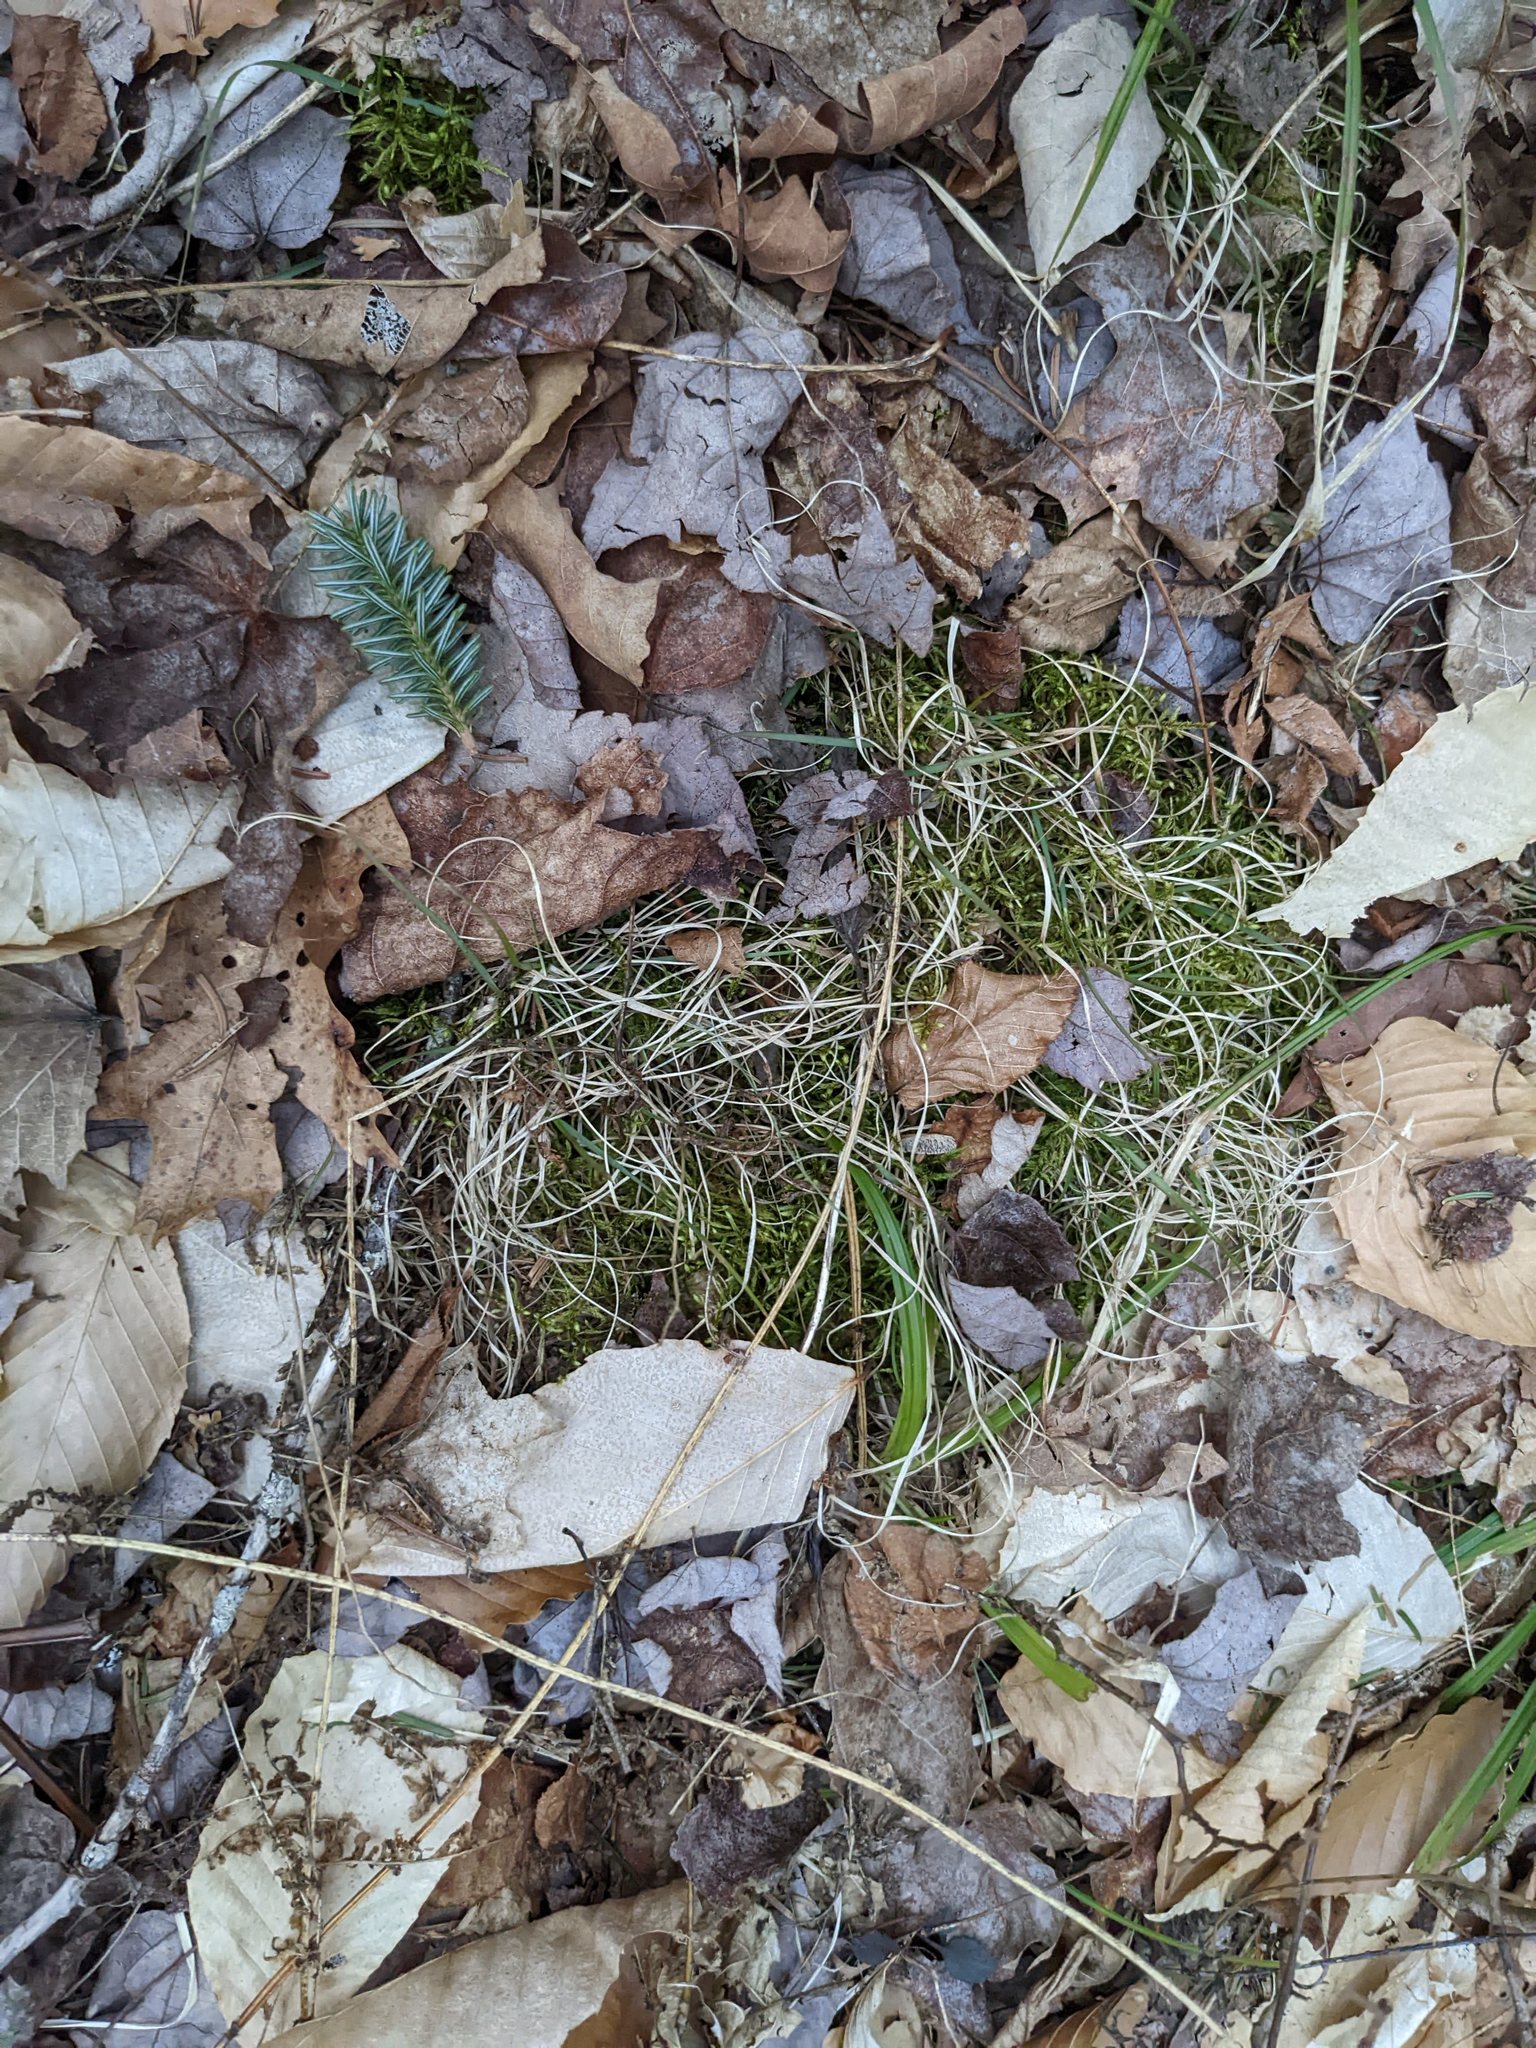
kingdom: Plantae
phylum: Tracheophyta
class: Liliopsida
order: Poales
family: Poaceae
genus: Danthonia
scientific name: Danthonia spicata
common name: Common wild oatgrass
